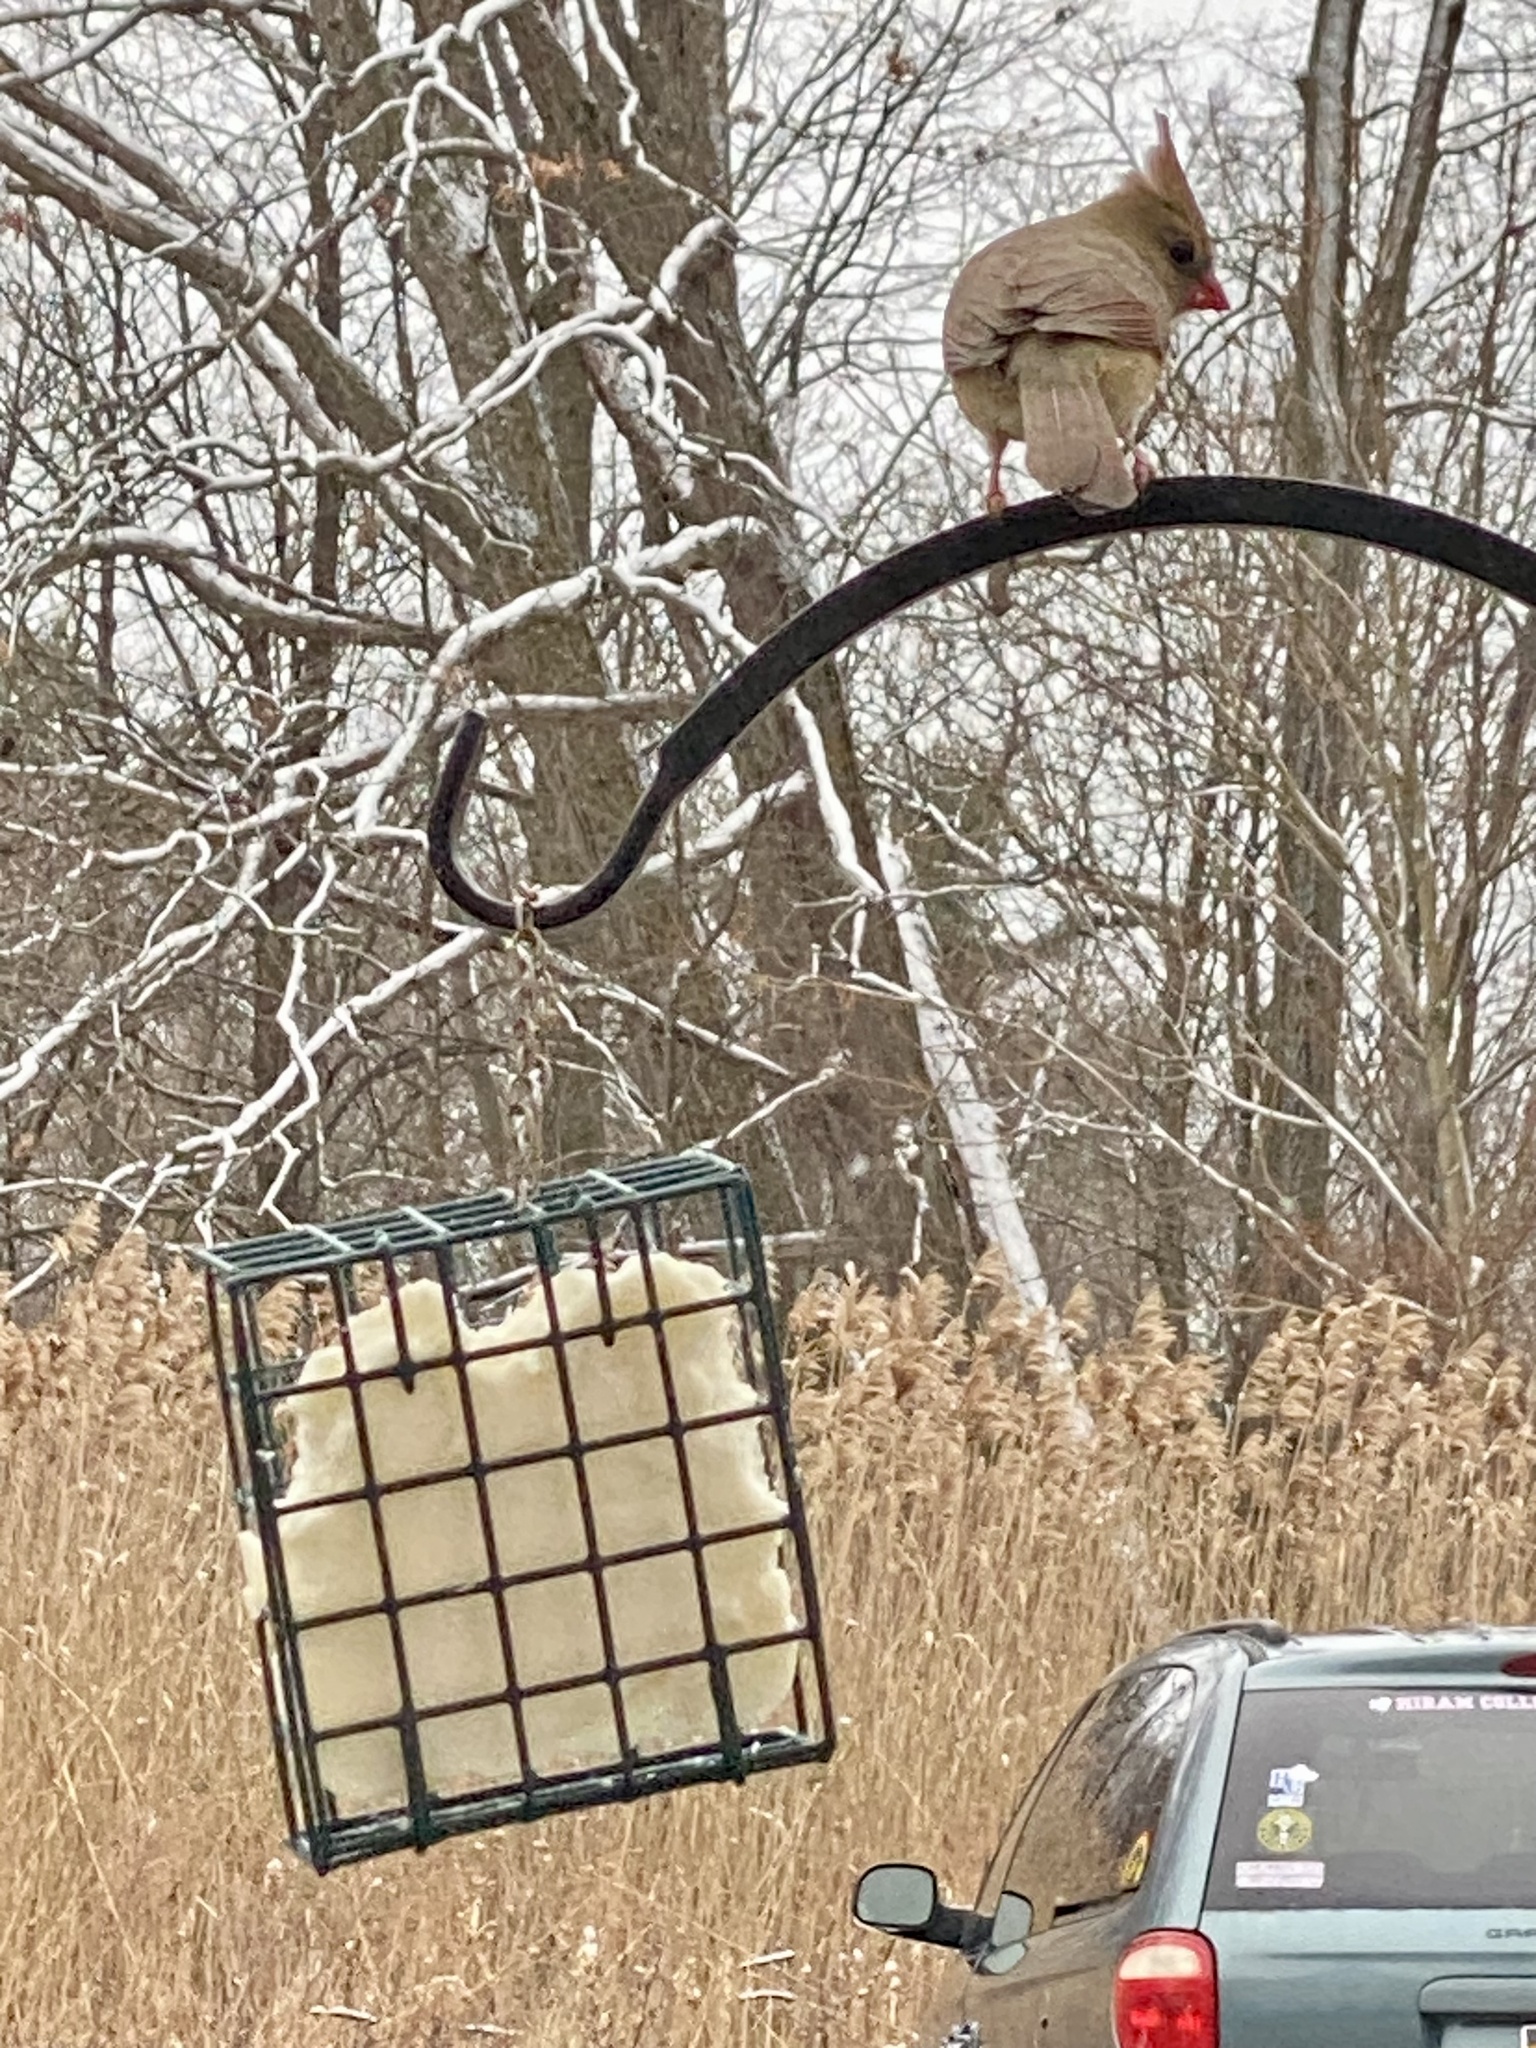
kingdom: Animalia
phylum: Chordata
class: Aves
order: Passeriformes
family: Cardinalidae
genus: Cardinalis
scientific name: Cardinalis cardinalis
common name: Northern cardinal
